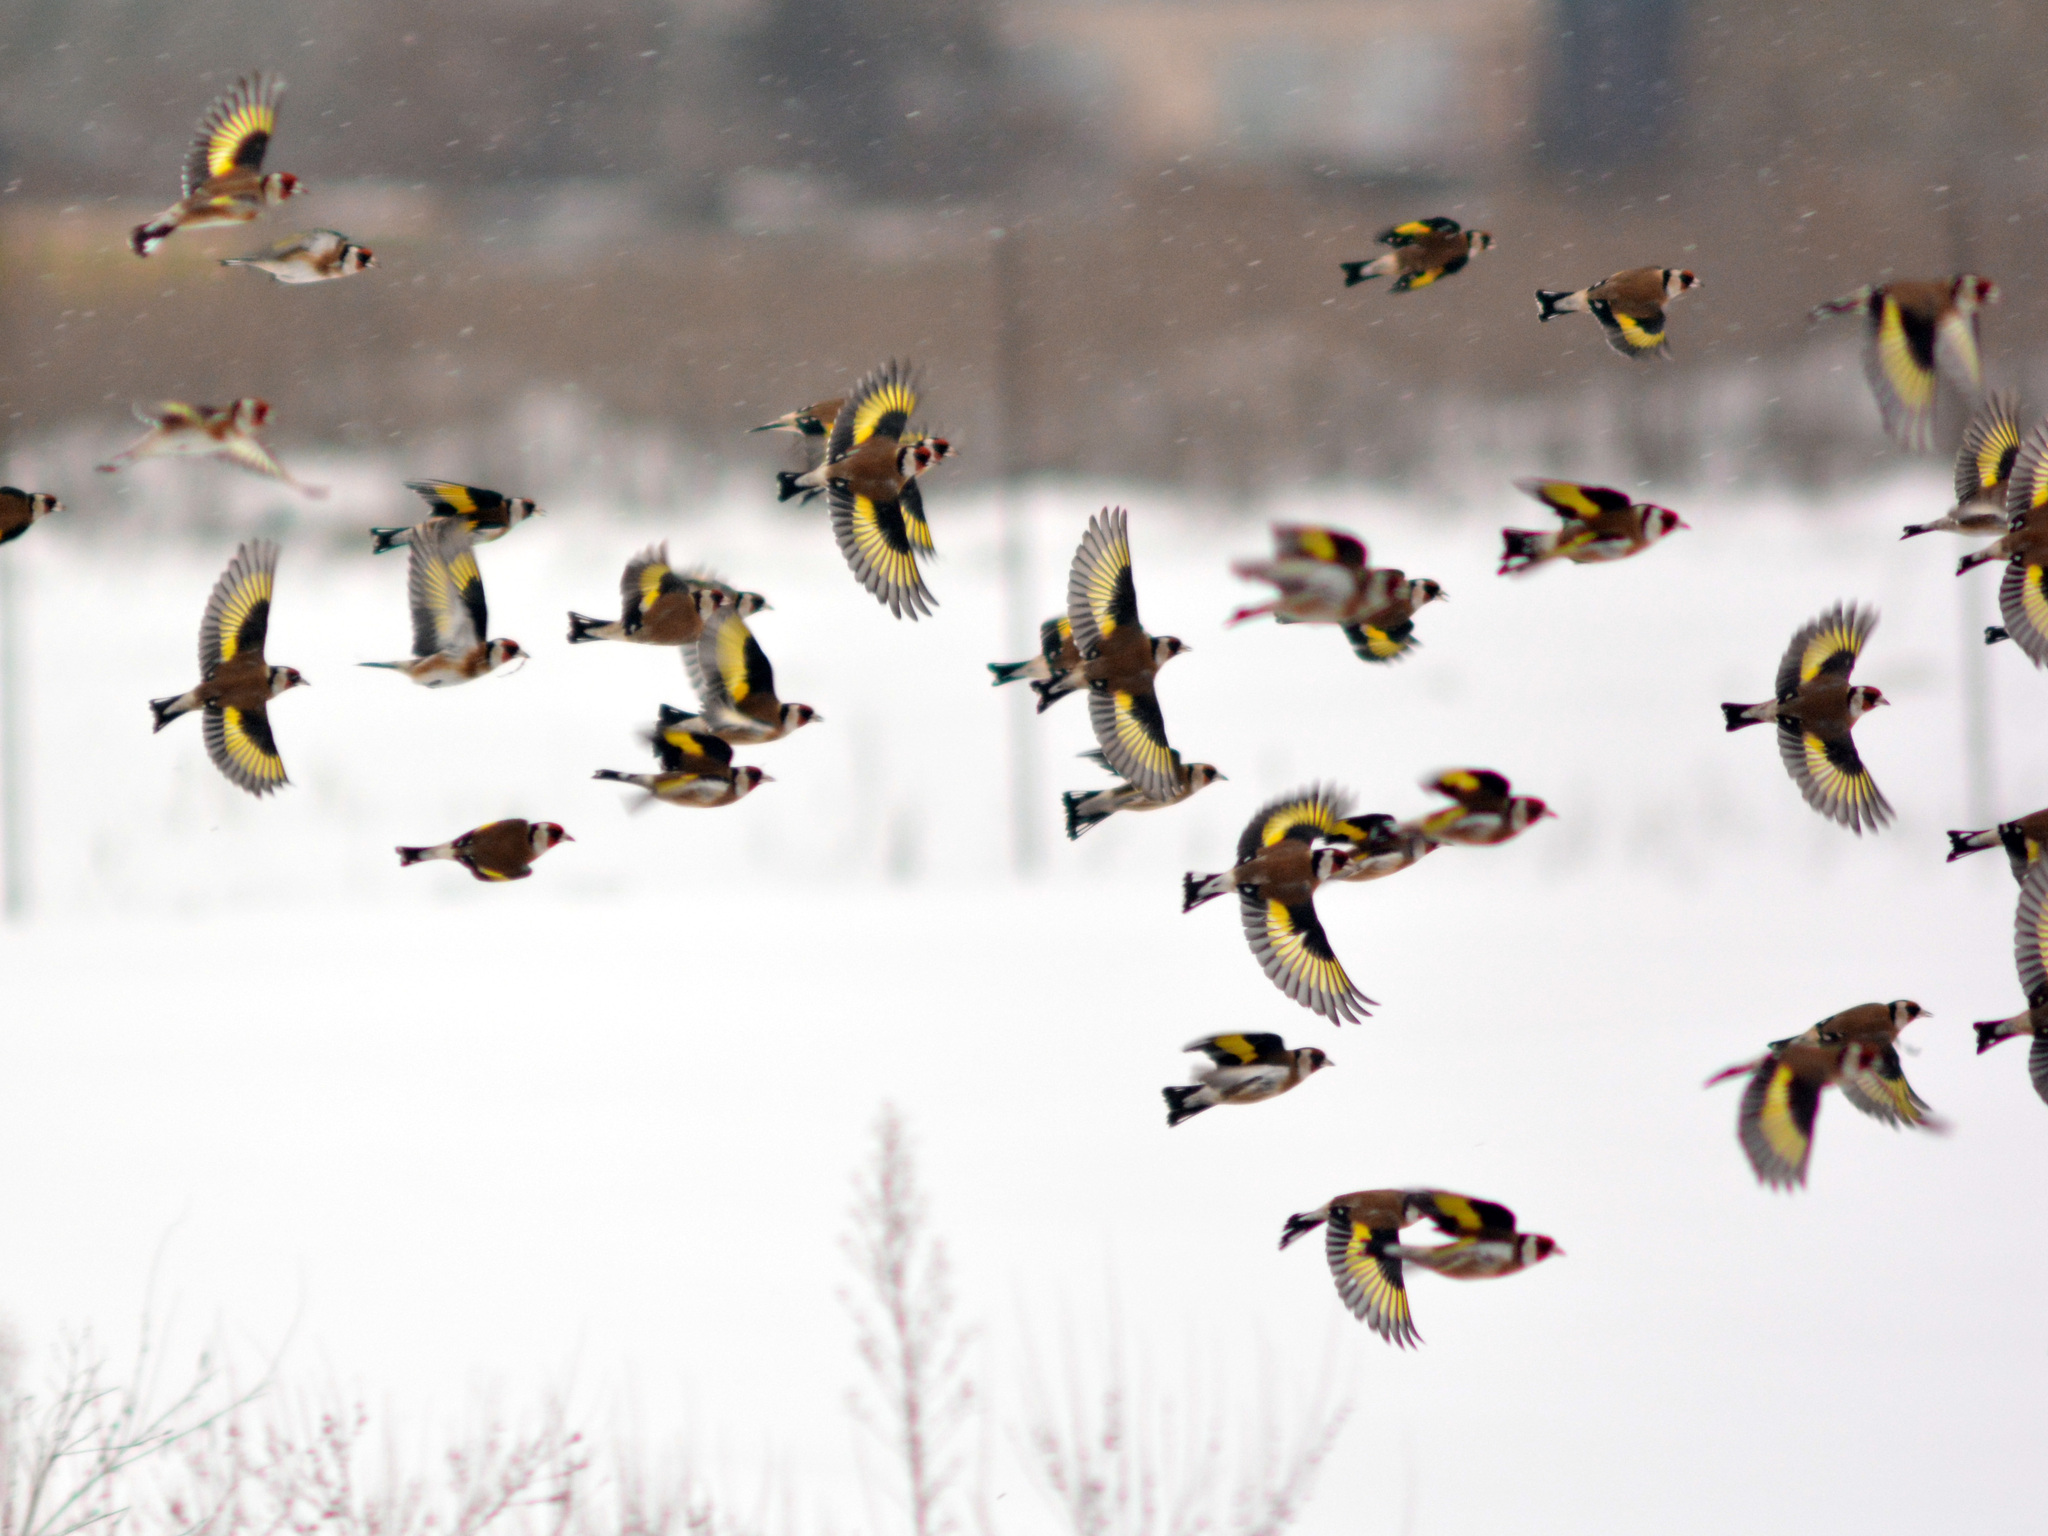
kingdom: Animalia
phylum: Chordata
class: Aves
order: Passeriformes
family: Fringillidae
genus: Carduelis
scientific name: Carduelis carduelis
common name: European goldfinch
